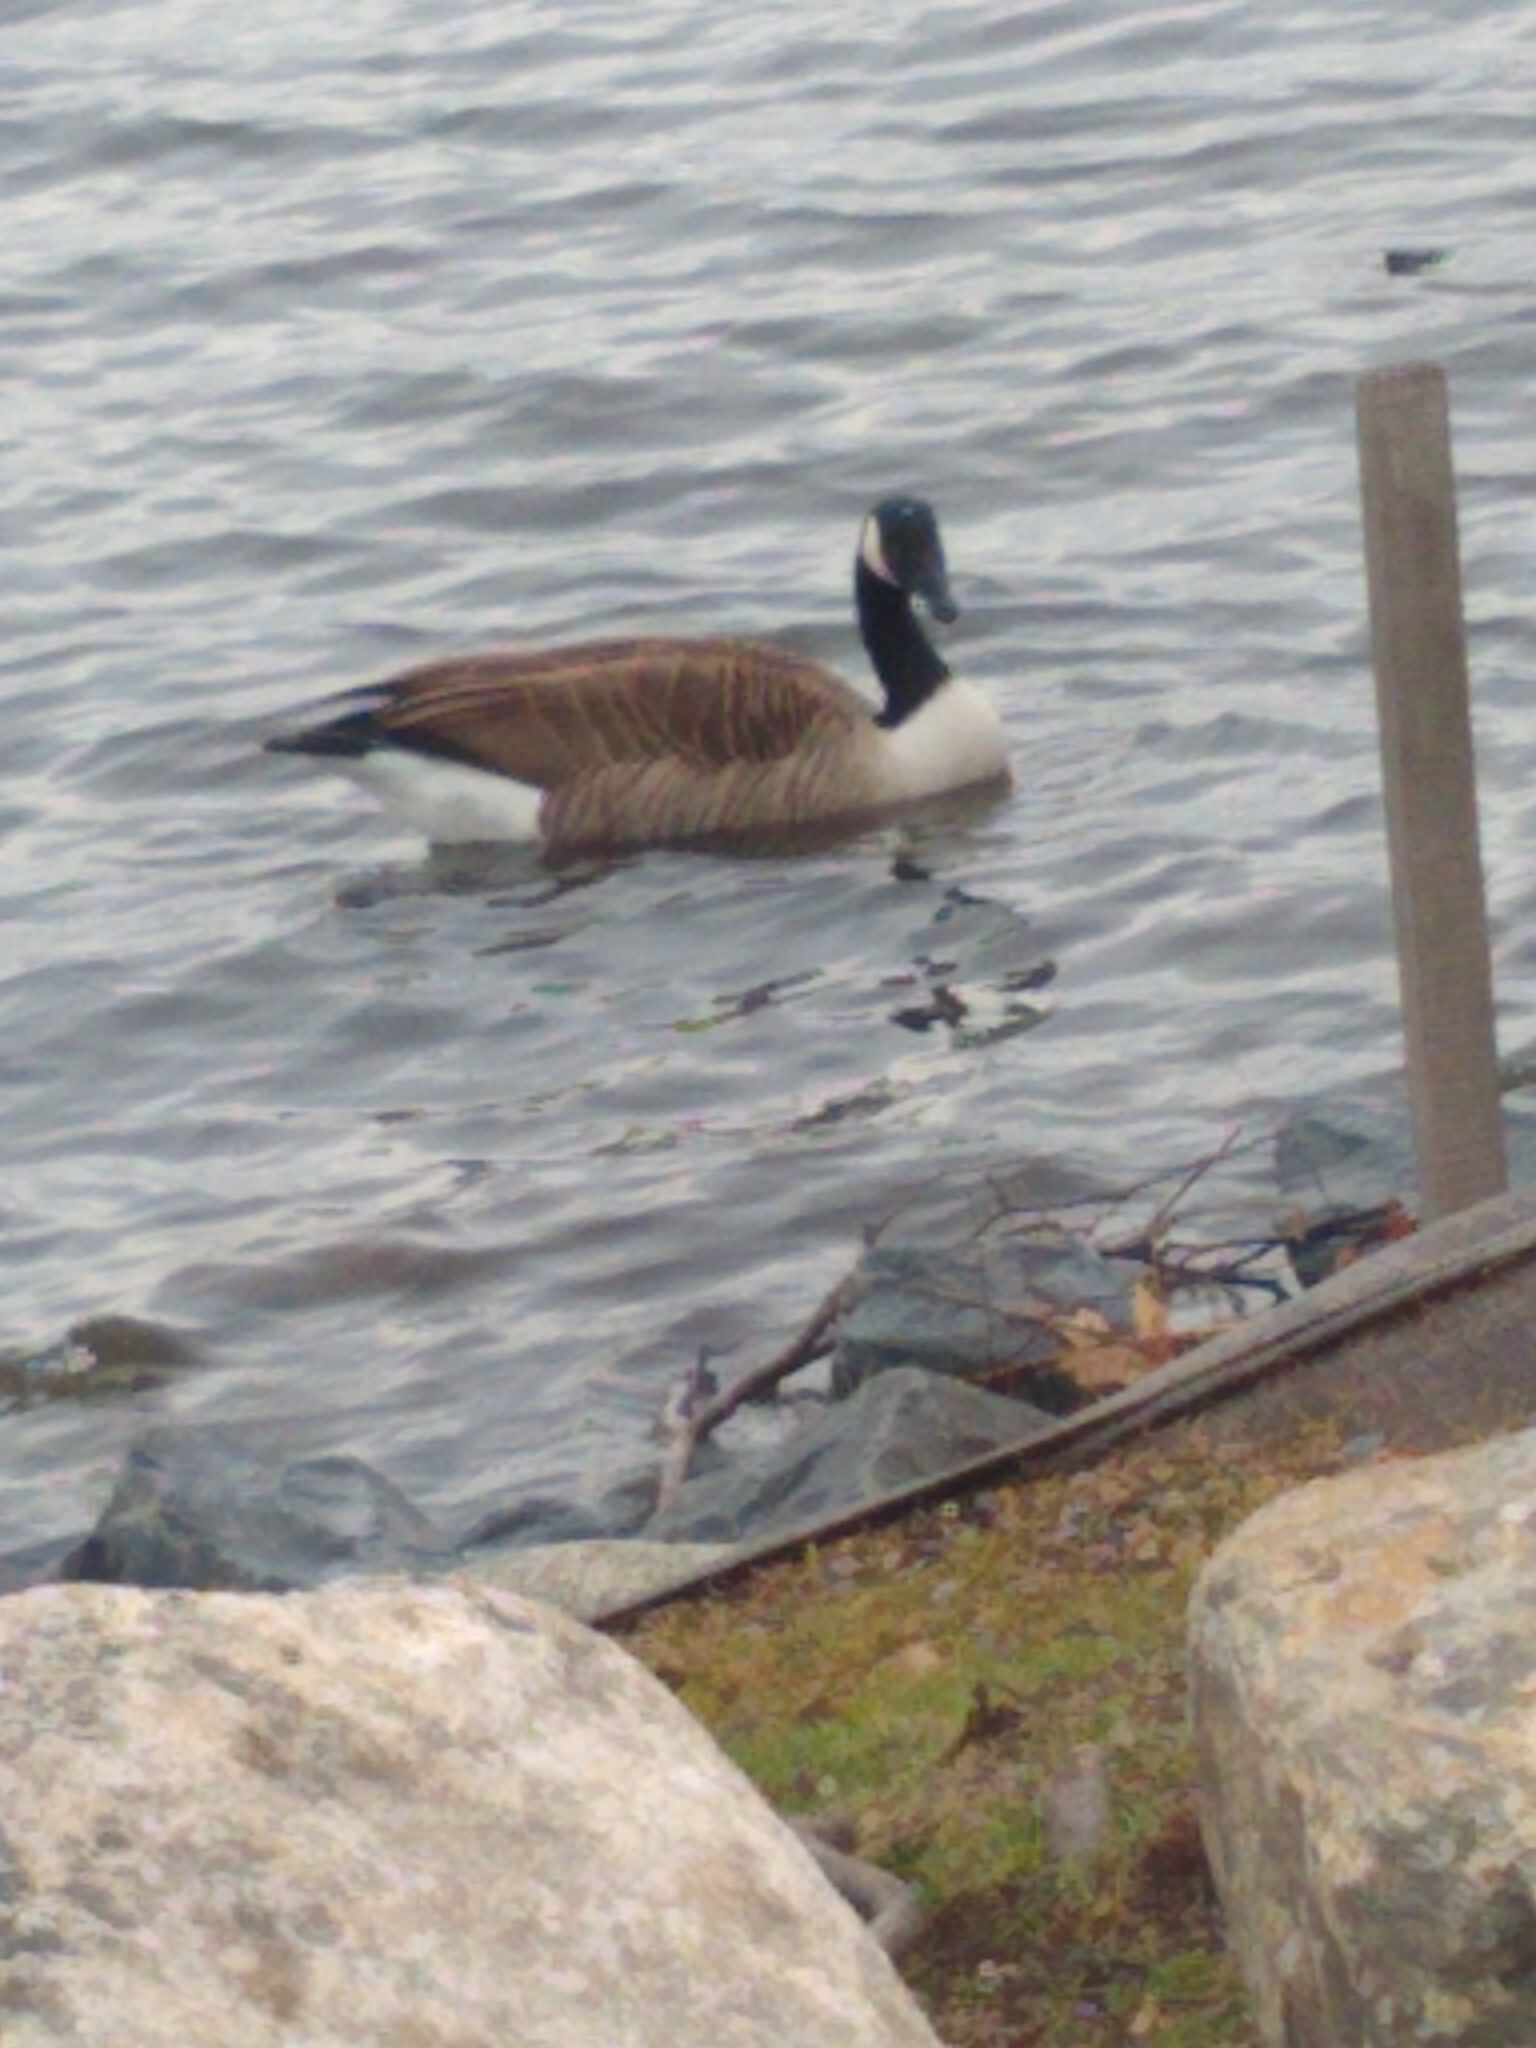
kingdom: Animalia
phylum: Chordata
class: Aves
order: Anseriformes
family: Anatidae
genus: Branta
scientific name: Branta canadensis
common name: Canada goose
